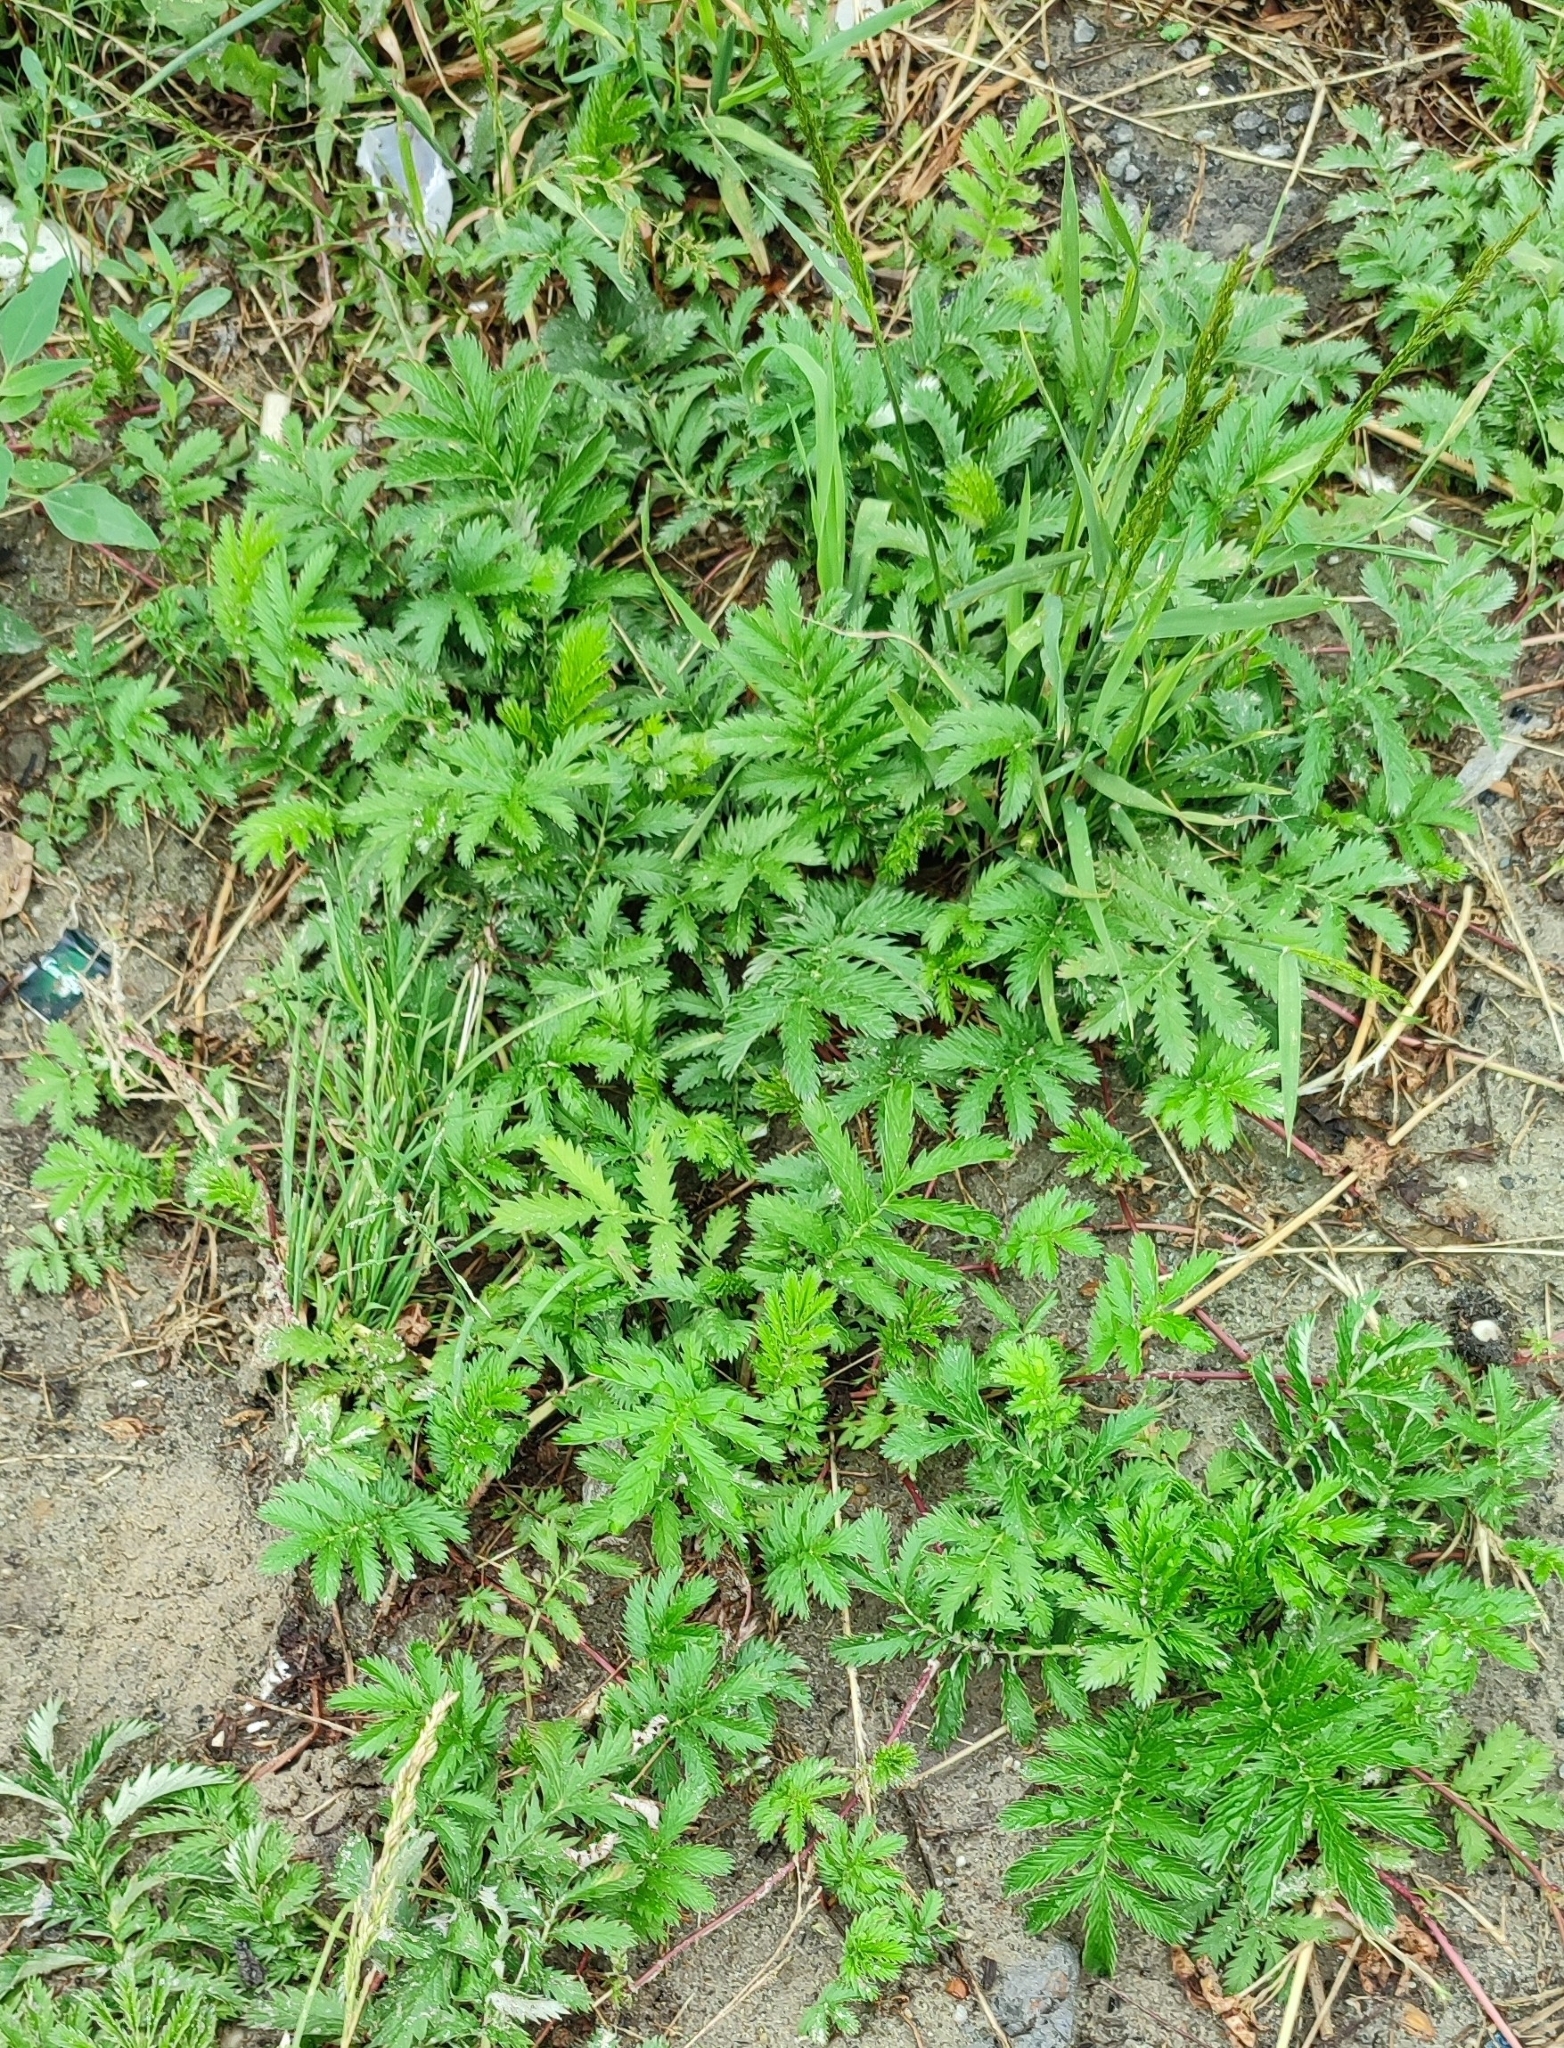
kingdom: Plantae
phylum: Tracheophyta
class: Magnoliopsida
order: Rosales
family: Rosaceae
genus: Argentina
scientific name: Argentina anserina
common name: Common silverweed
